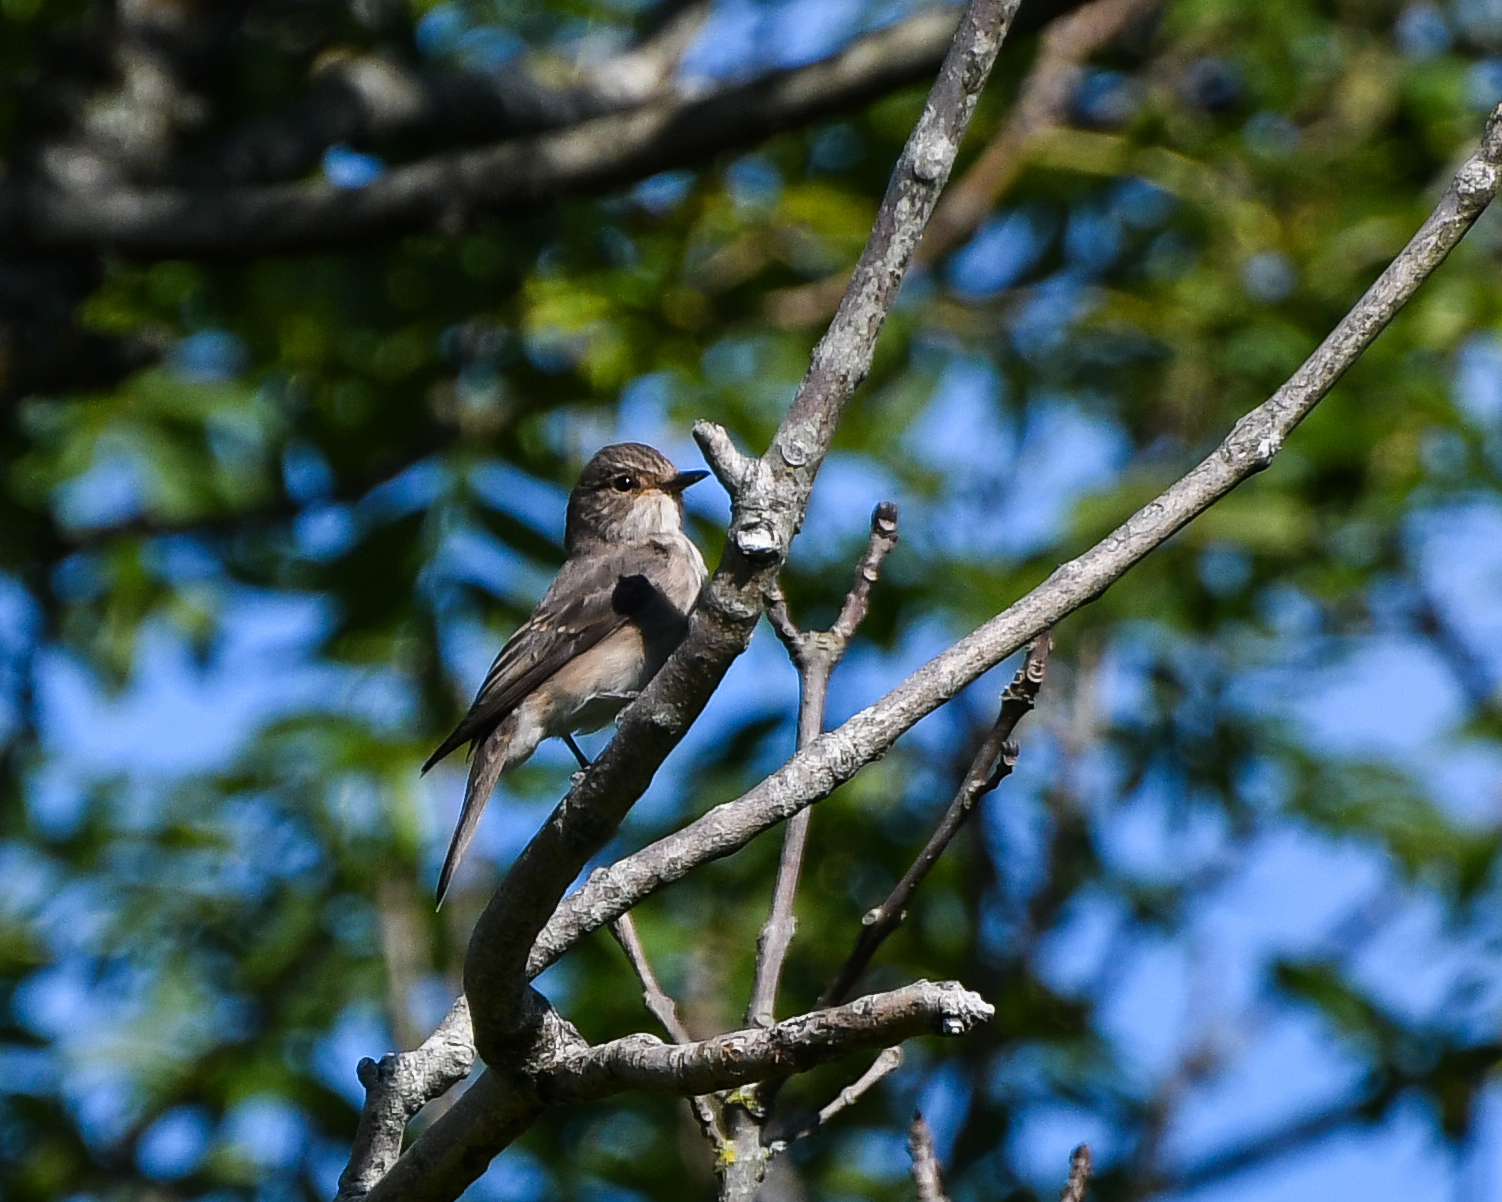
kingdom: Animalia
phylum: Chordata
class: Aves
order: Passeriformes
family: Muscicapidae
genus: Muscicapa
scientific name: Muscicapa striata
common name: Spotted flycatcher
